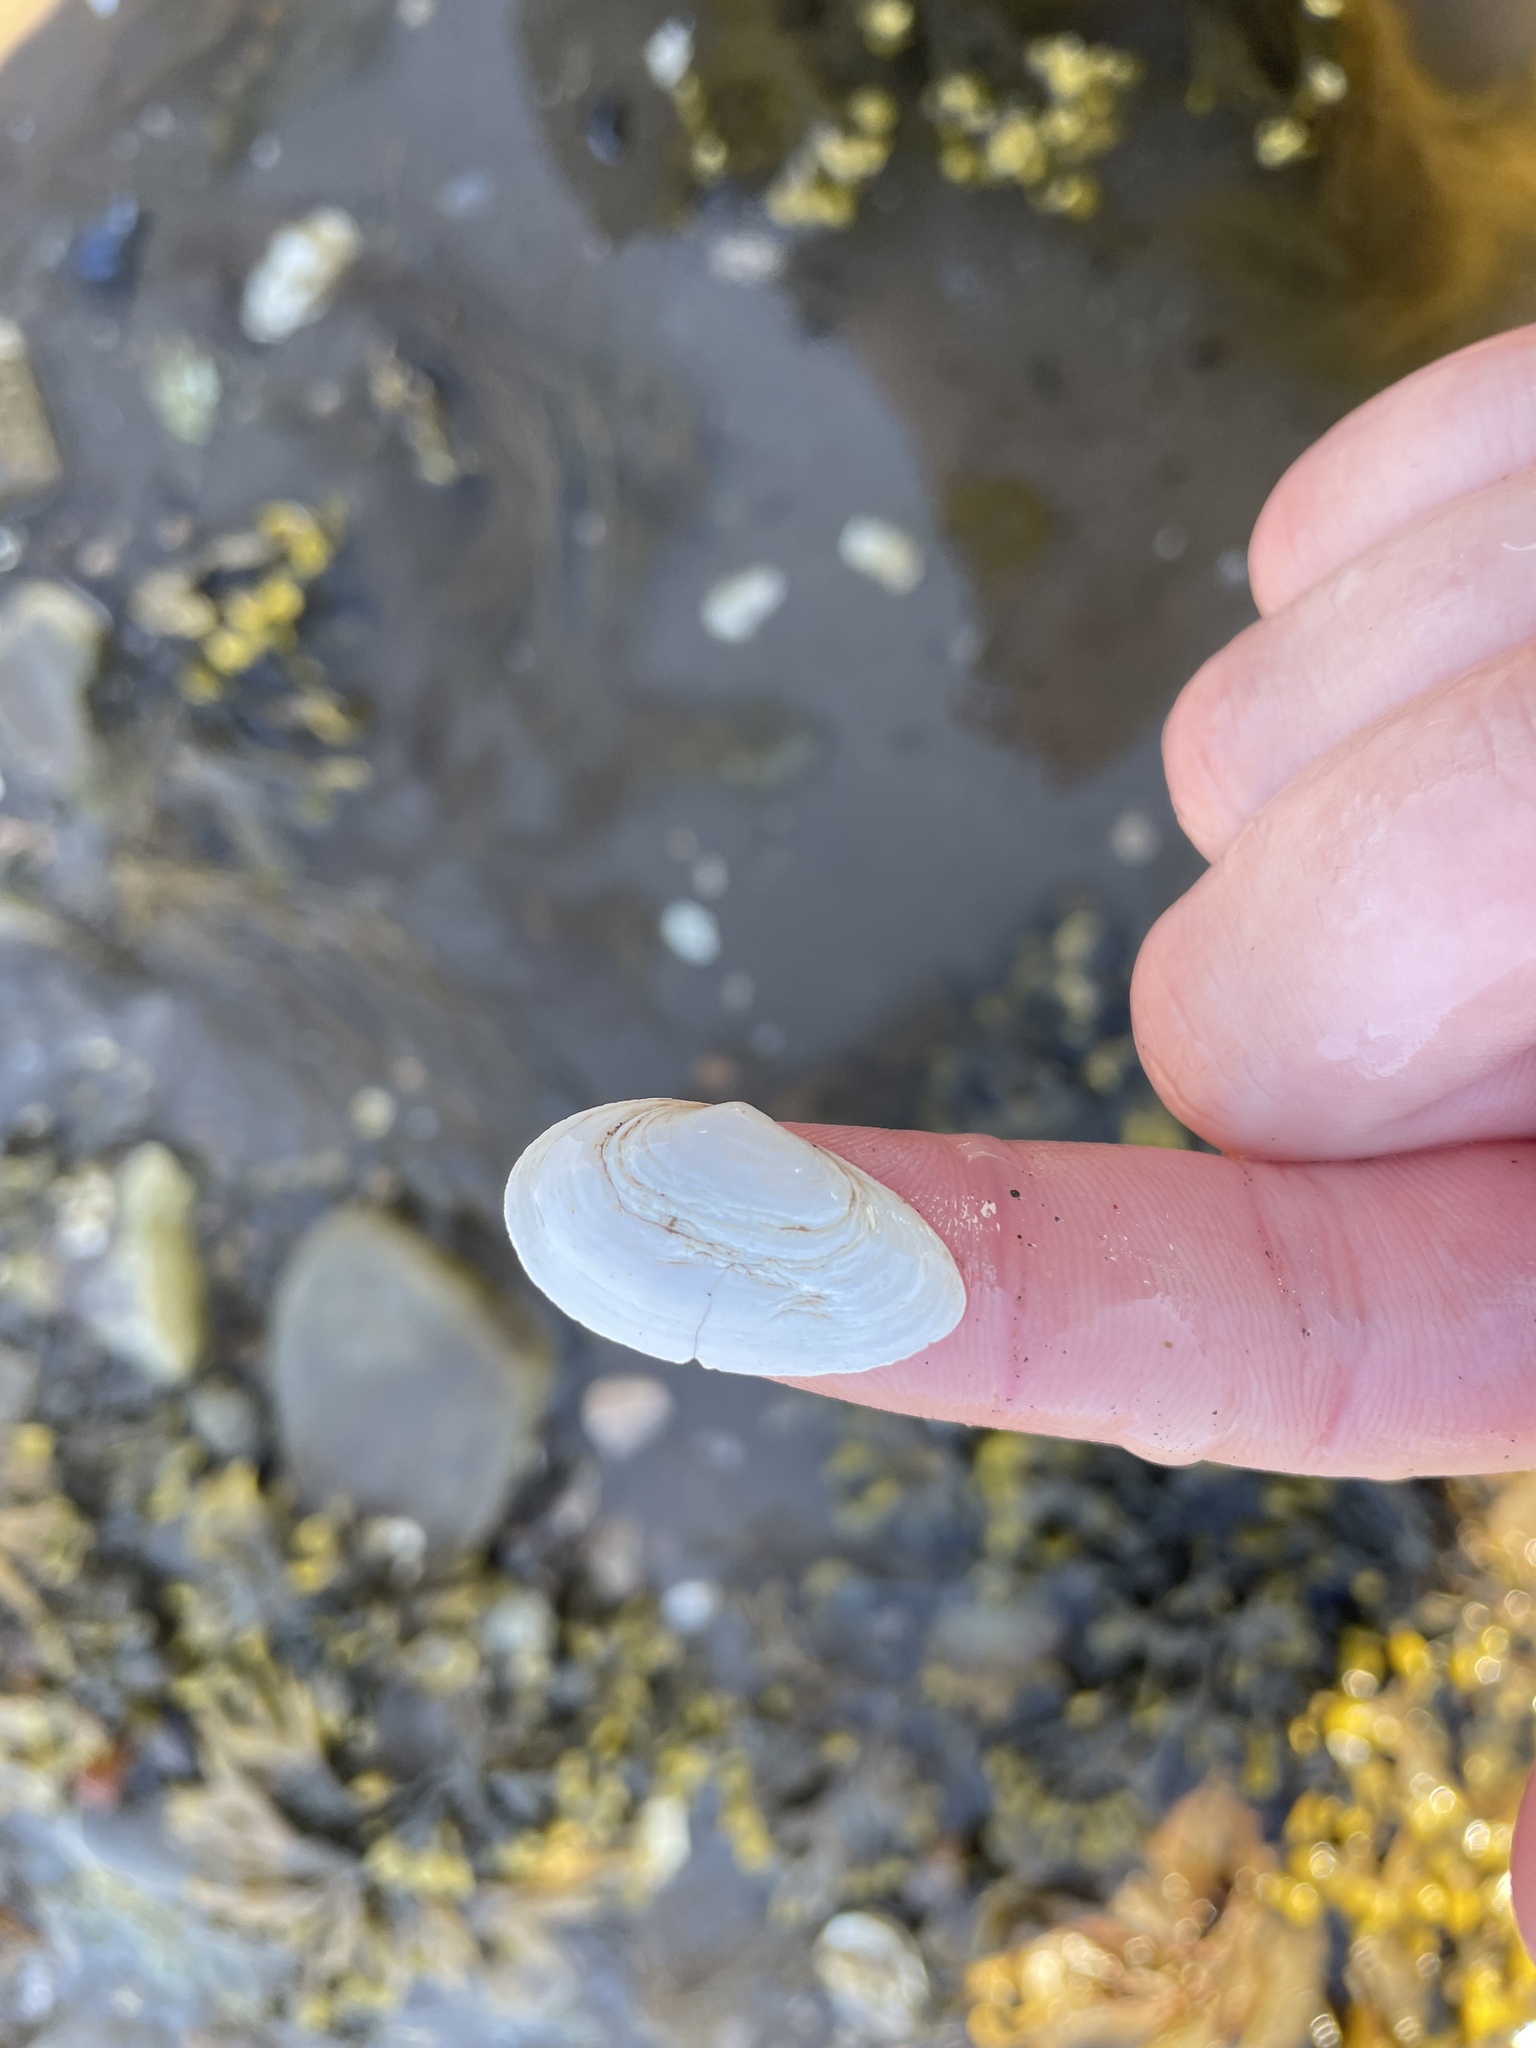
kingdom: Animalia
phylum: Mollusca
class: Bivalvia
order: Myida
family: Myidae
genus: Mya
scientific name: Mya arenaria
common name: Soft-shelled clam
